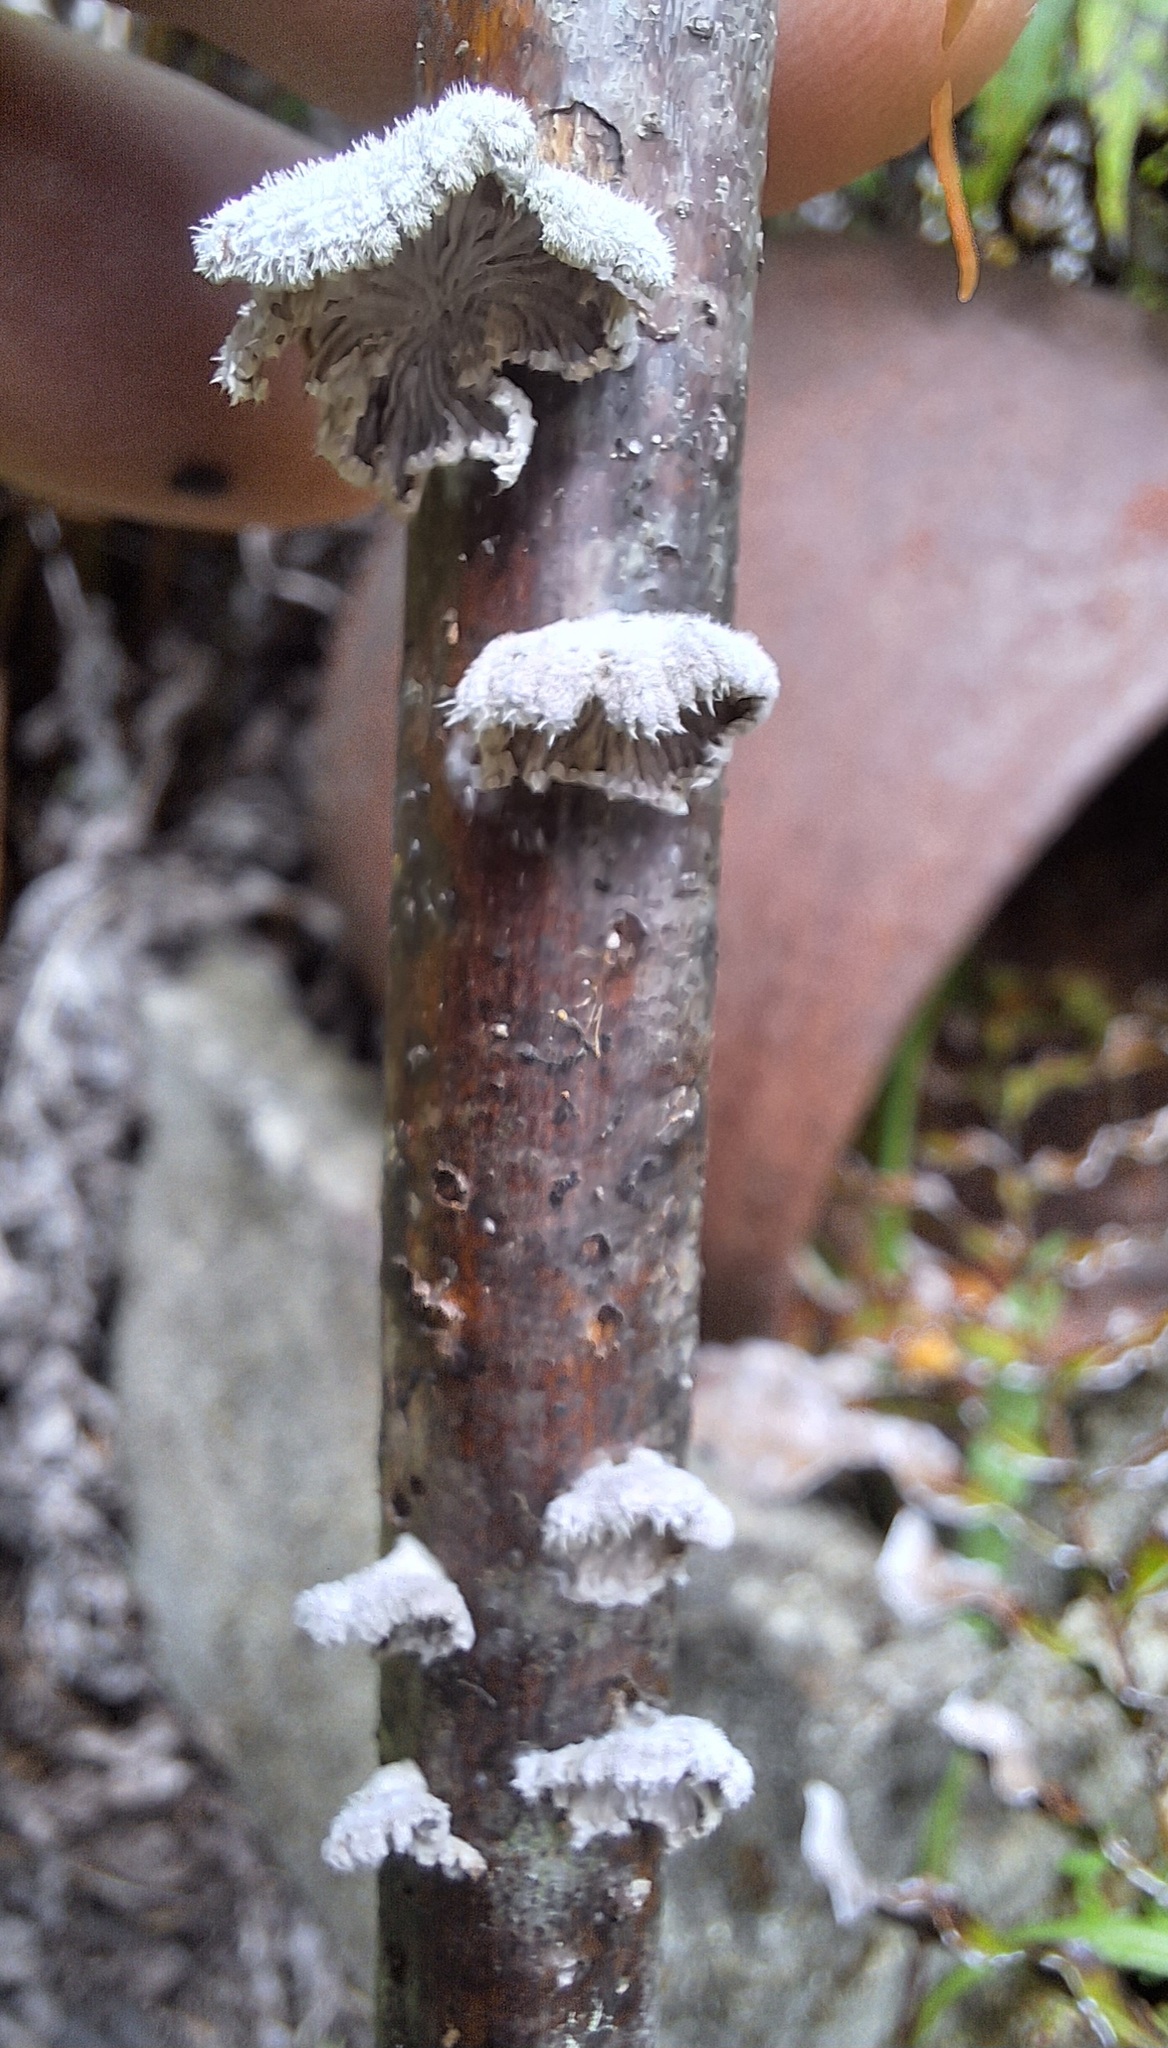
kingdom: Fungi
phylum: Basidiomycota
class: Agaricomycetes
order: Agaricales
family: Schizophyllaceae
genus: Schizophyllum
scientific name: Schizophyllum commune
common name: Common porecrust
